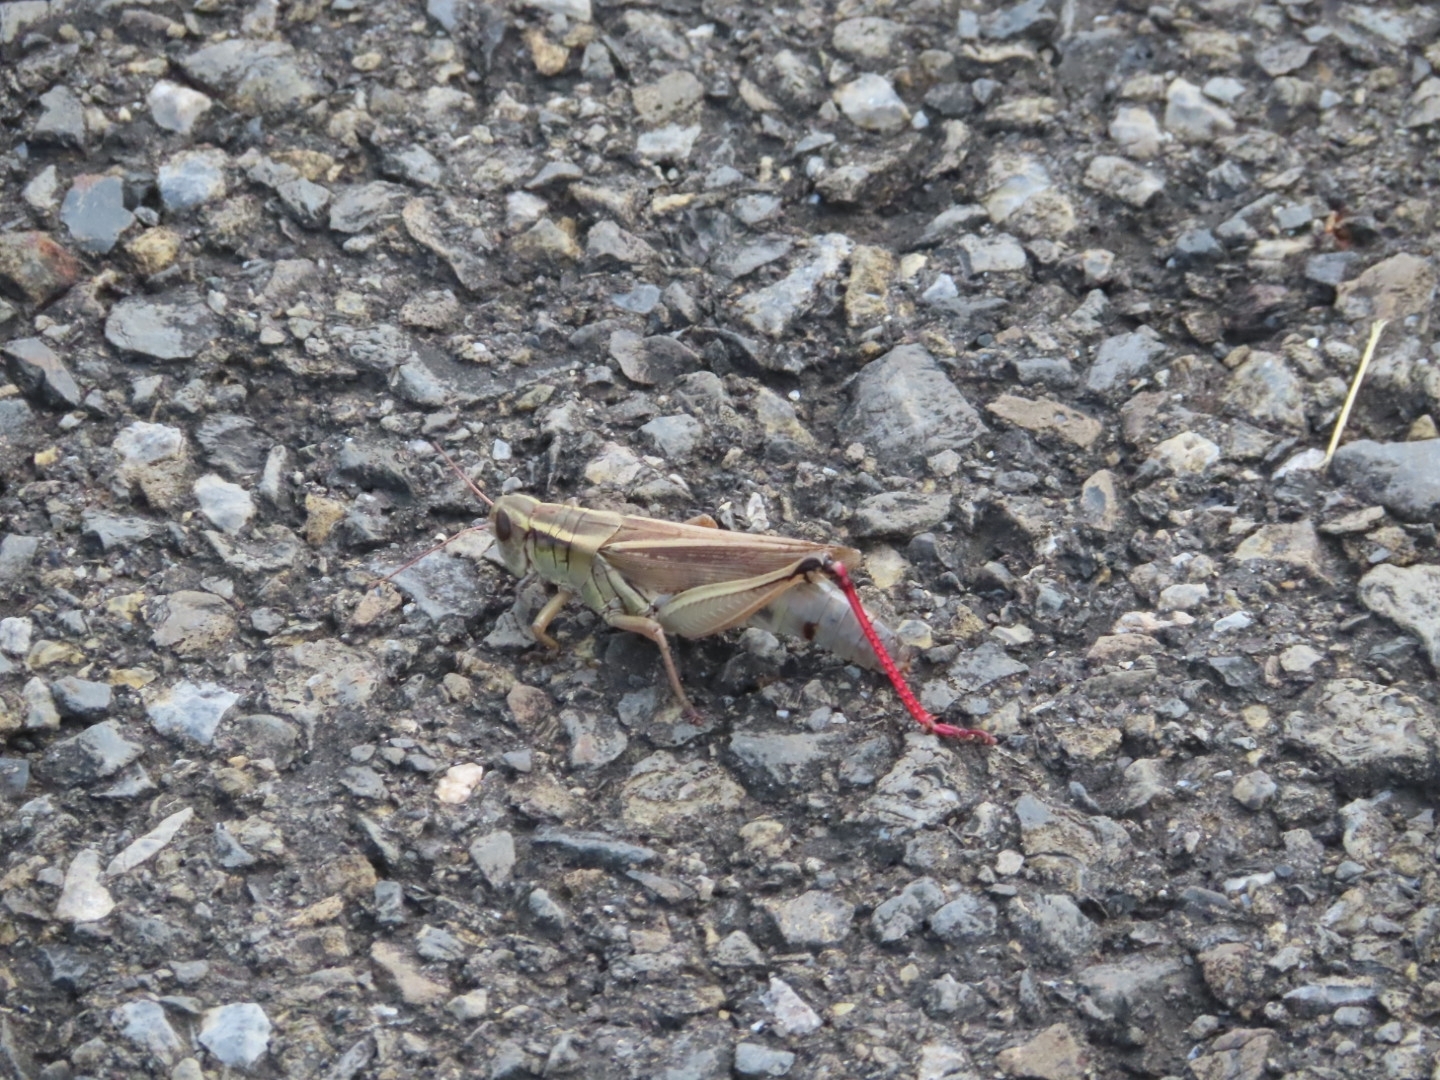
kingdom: Animalia
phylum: Arthropoda
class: Insecta
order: Orthoptera
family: Acrididae
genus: Melanoplus
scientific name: Melanoplus bivittatus
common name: Two-striped grasshopper
